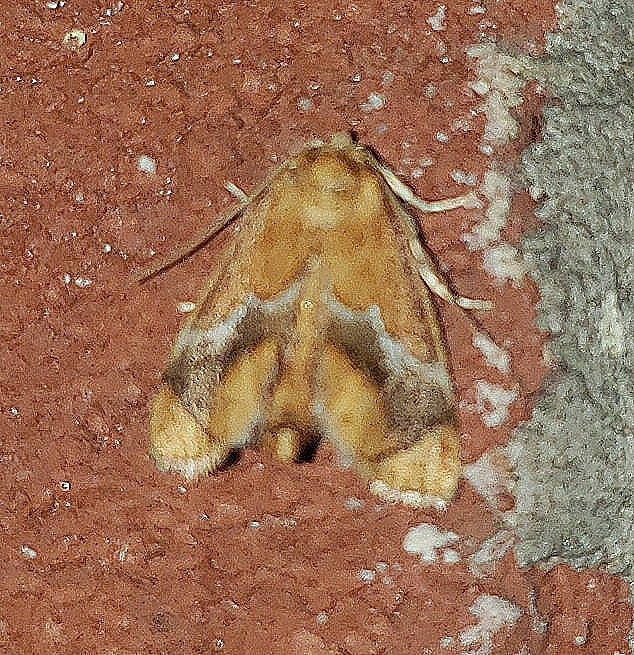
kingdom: Animalia
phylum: Arthropoda
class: Insecta
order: Lepidoptera
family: Limacodidae
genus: Lithacodes
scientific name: Lithacodes fasciola
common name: Yellow-shouldered slug moth
